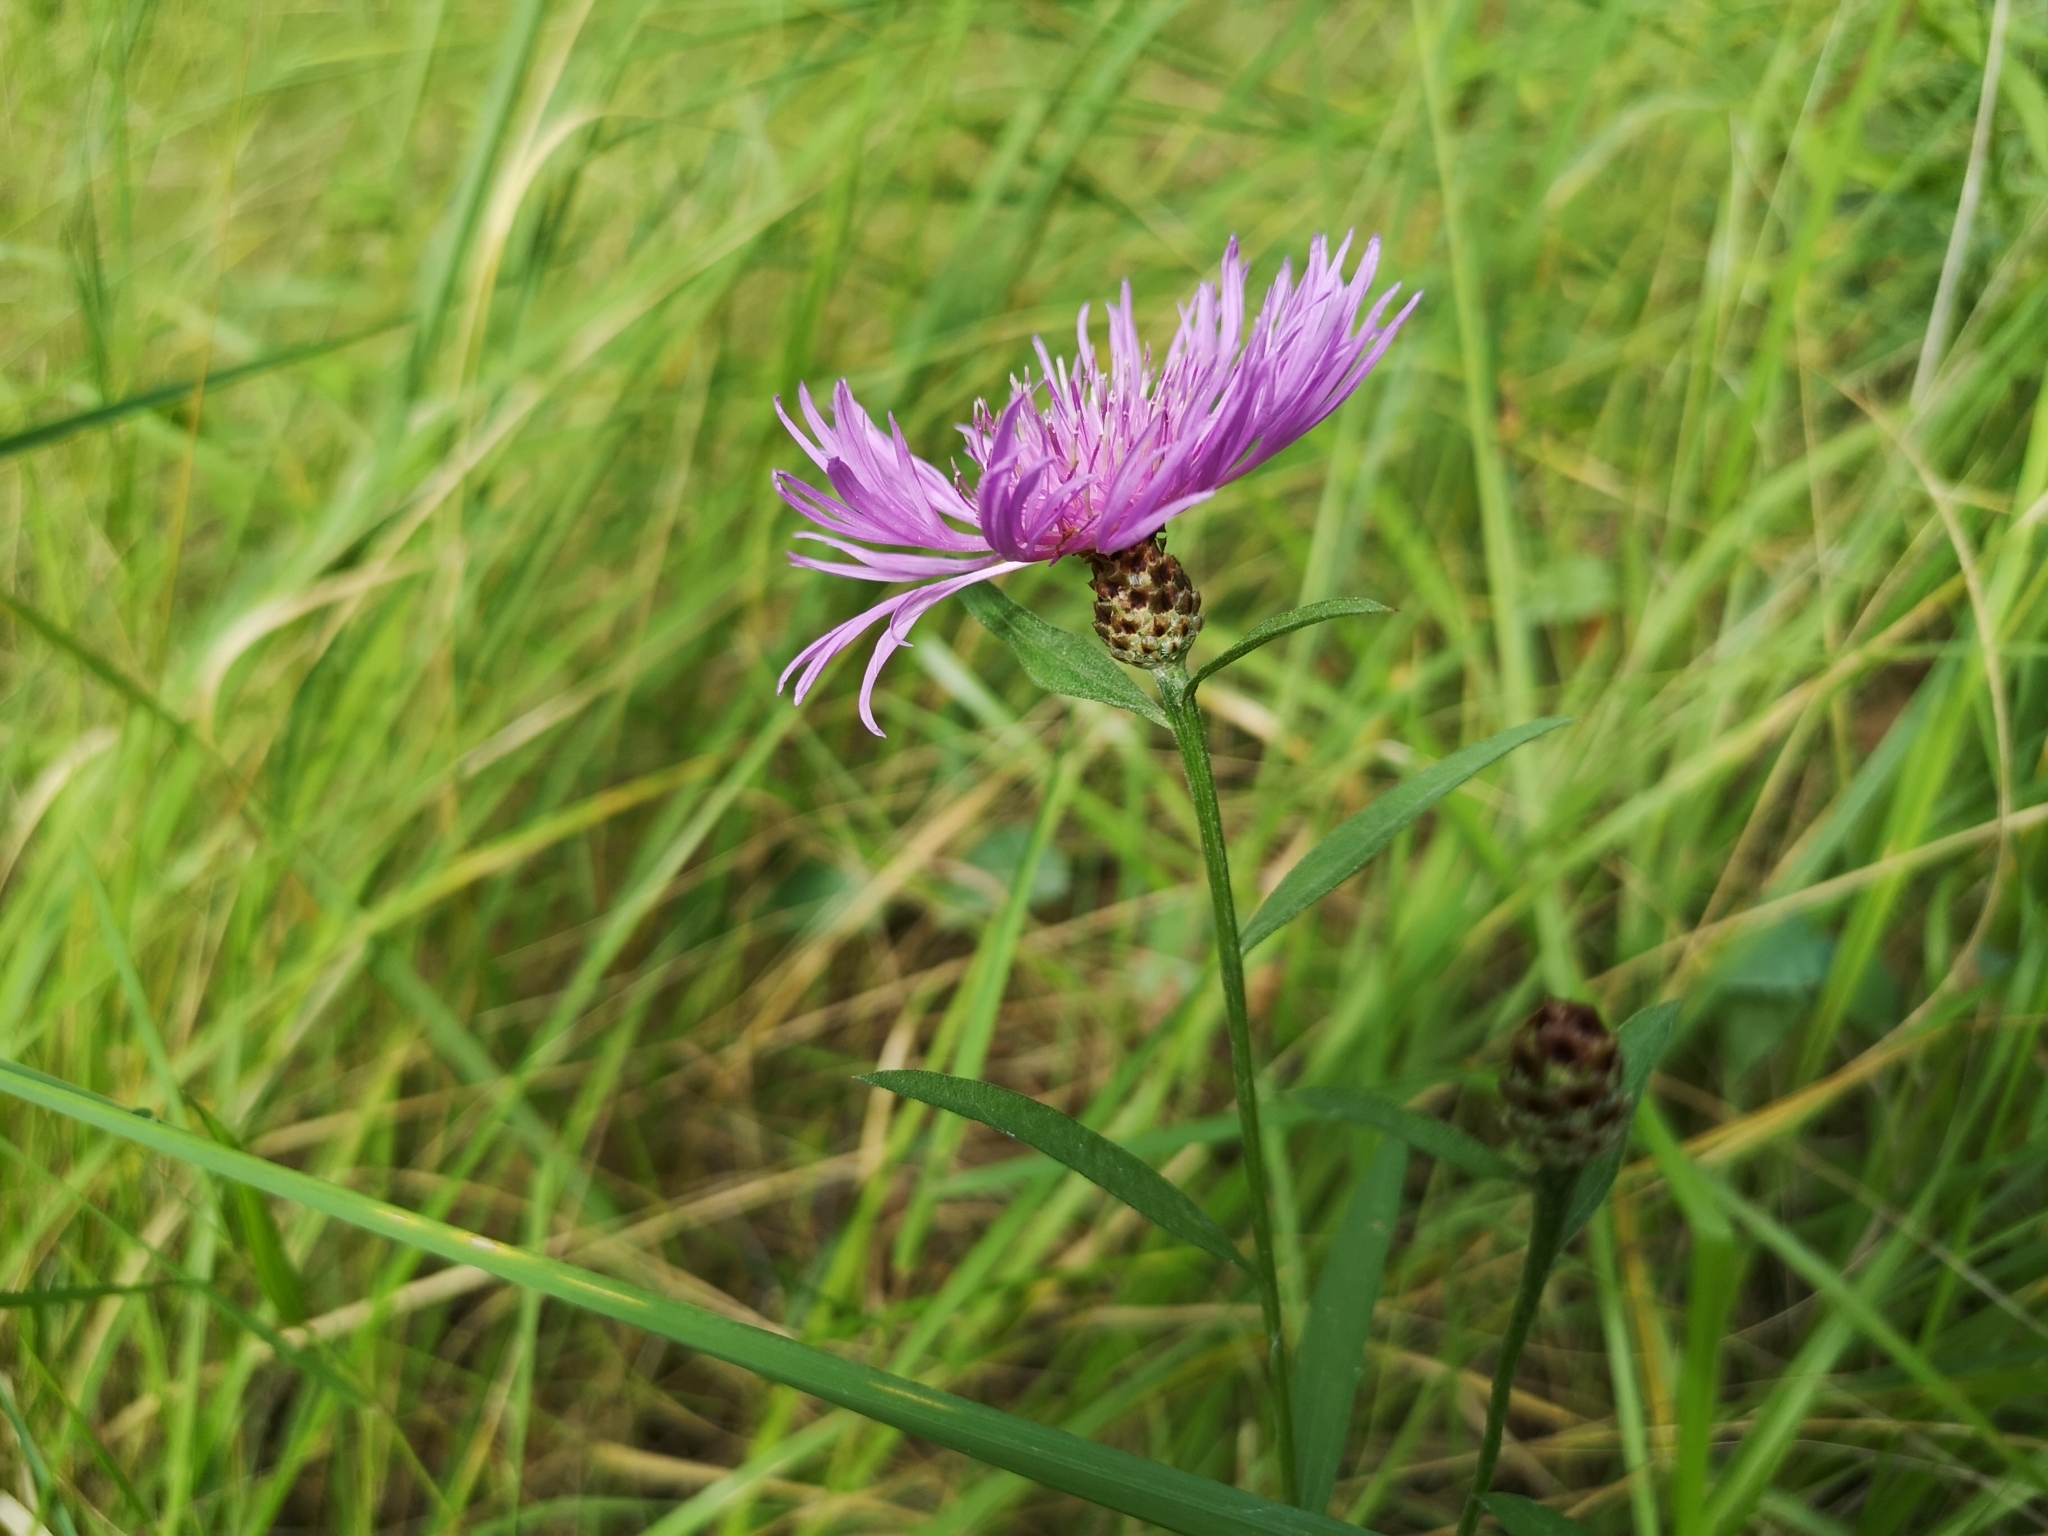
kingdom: Plantae
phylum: Tracheophyta
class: Magnoliopsida
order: Asterales
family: Asteraceae
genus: Centaurea
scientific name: Centaurea jacea
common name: Brown knapweed
